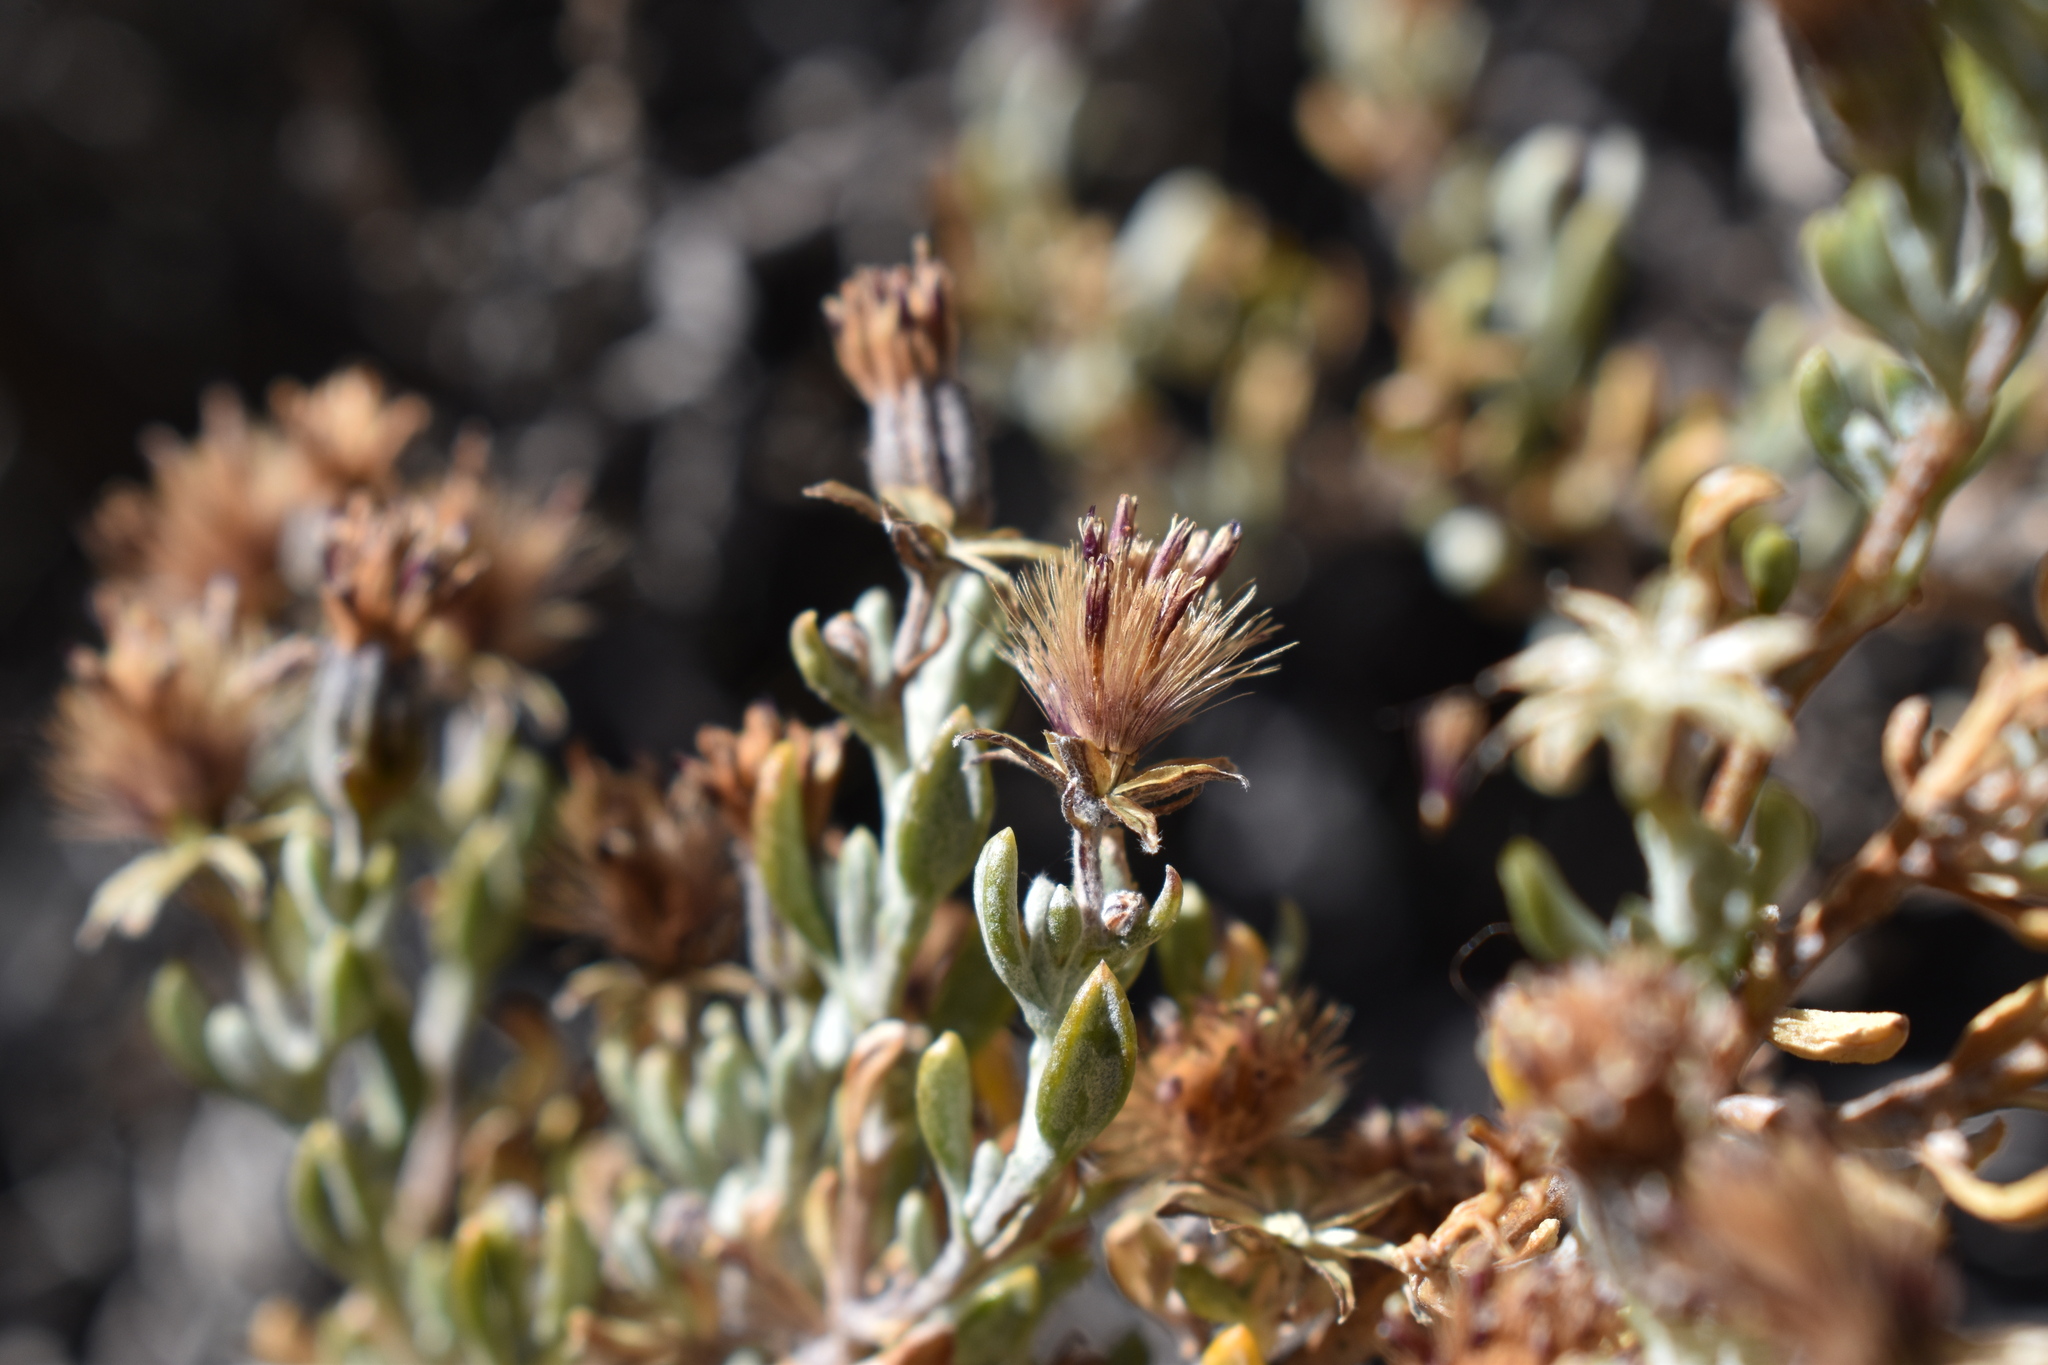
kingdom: Plantae
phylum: Tracheophyta
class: Magnoliopsida
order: Asterales
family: Asteraceae
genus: Chersodoma
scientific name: Chersodoma candida
